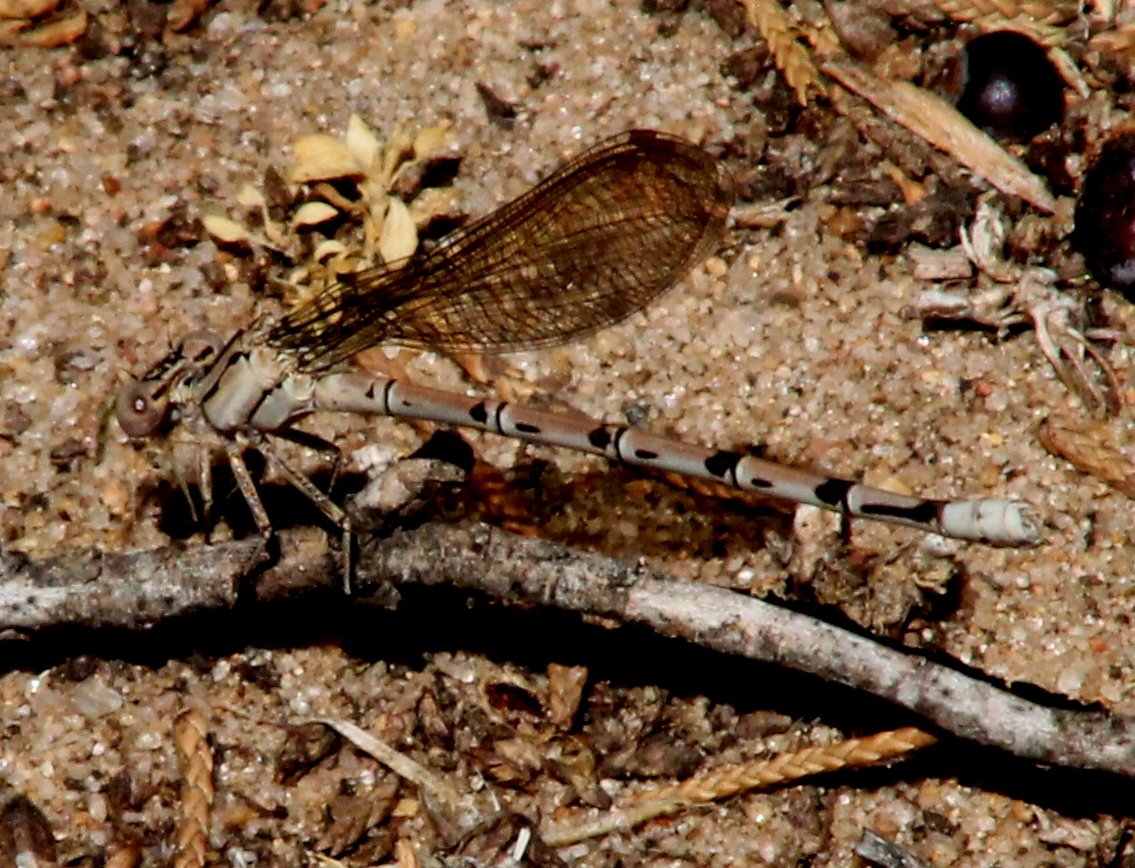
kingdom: Animalia
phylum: Arthropoda
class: Insecta
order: Odonata
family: Coenagrionidae
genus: Argia
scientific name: Argia funebris
